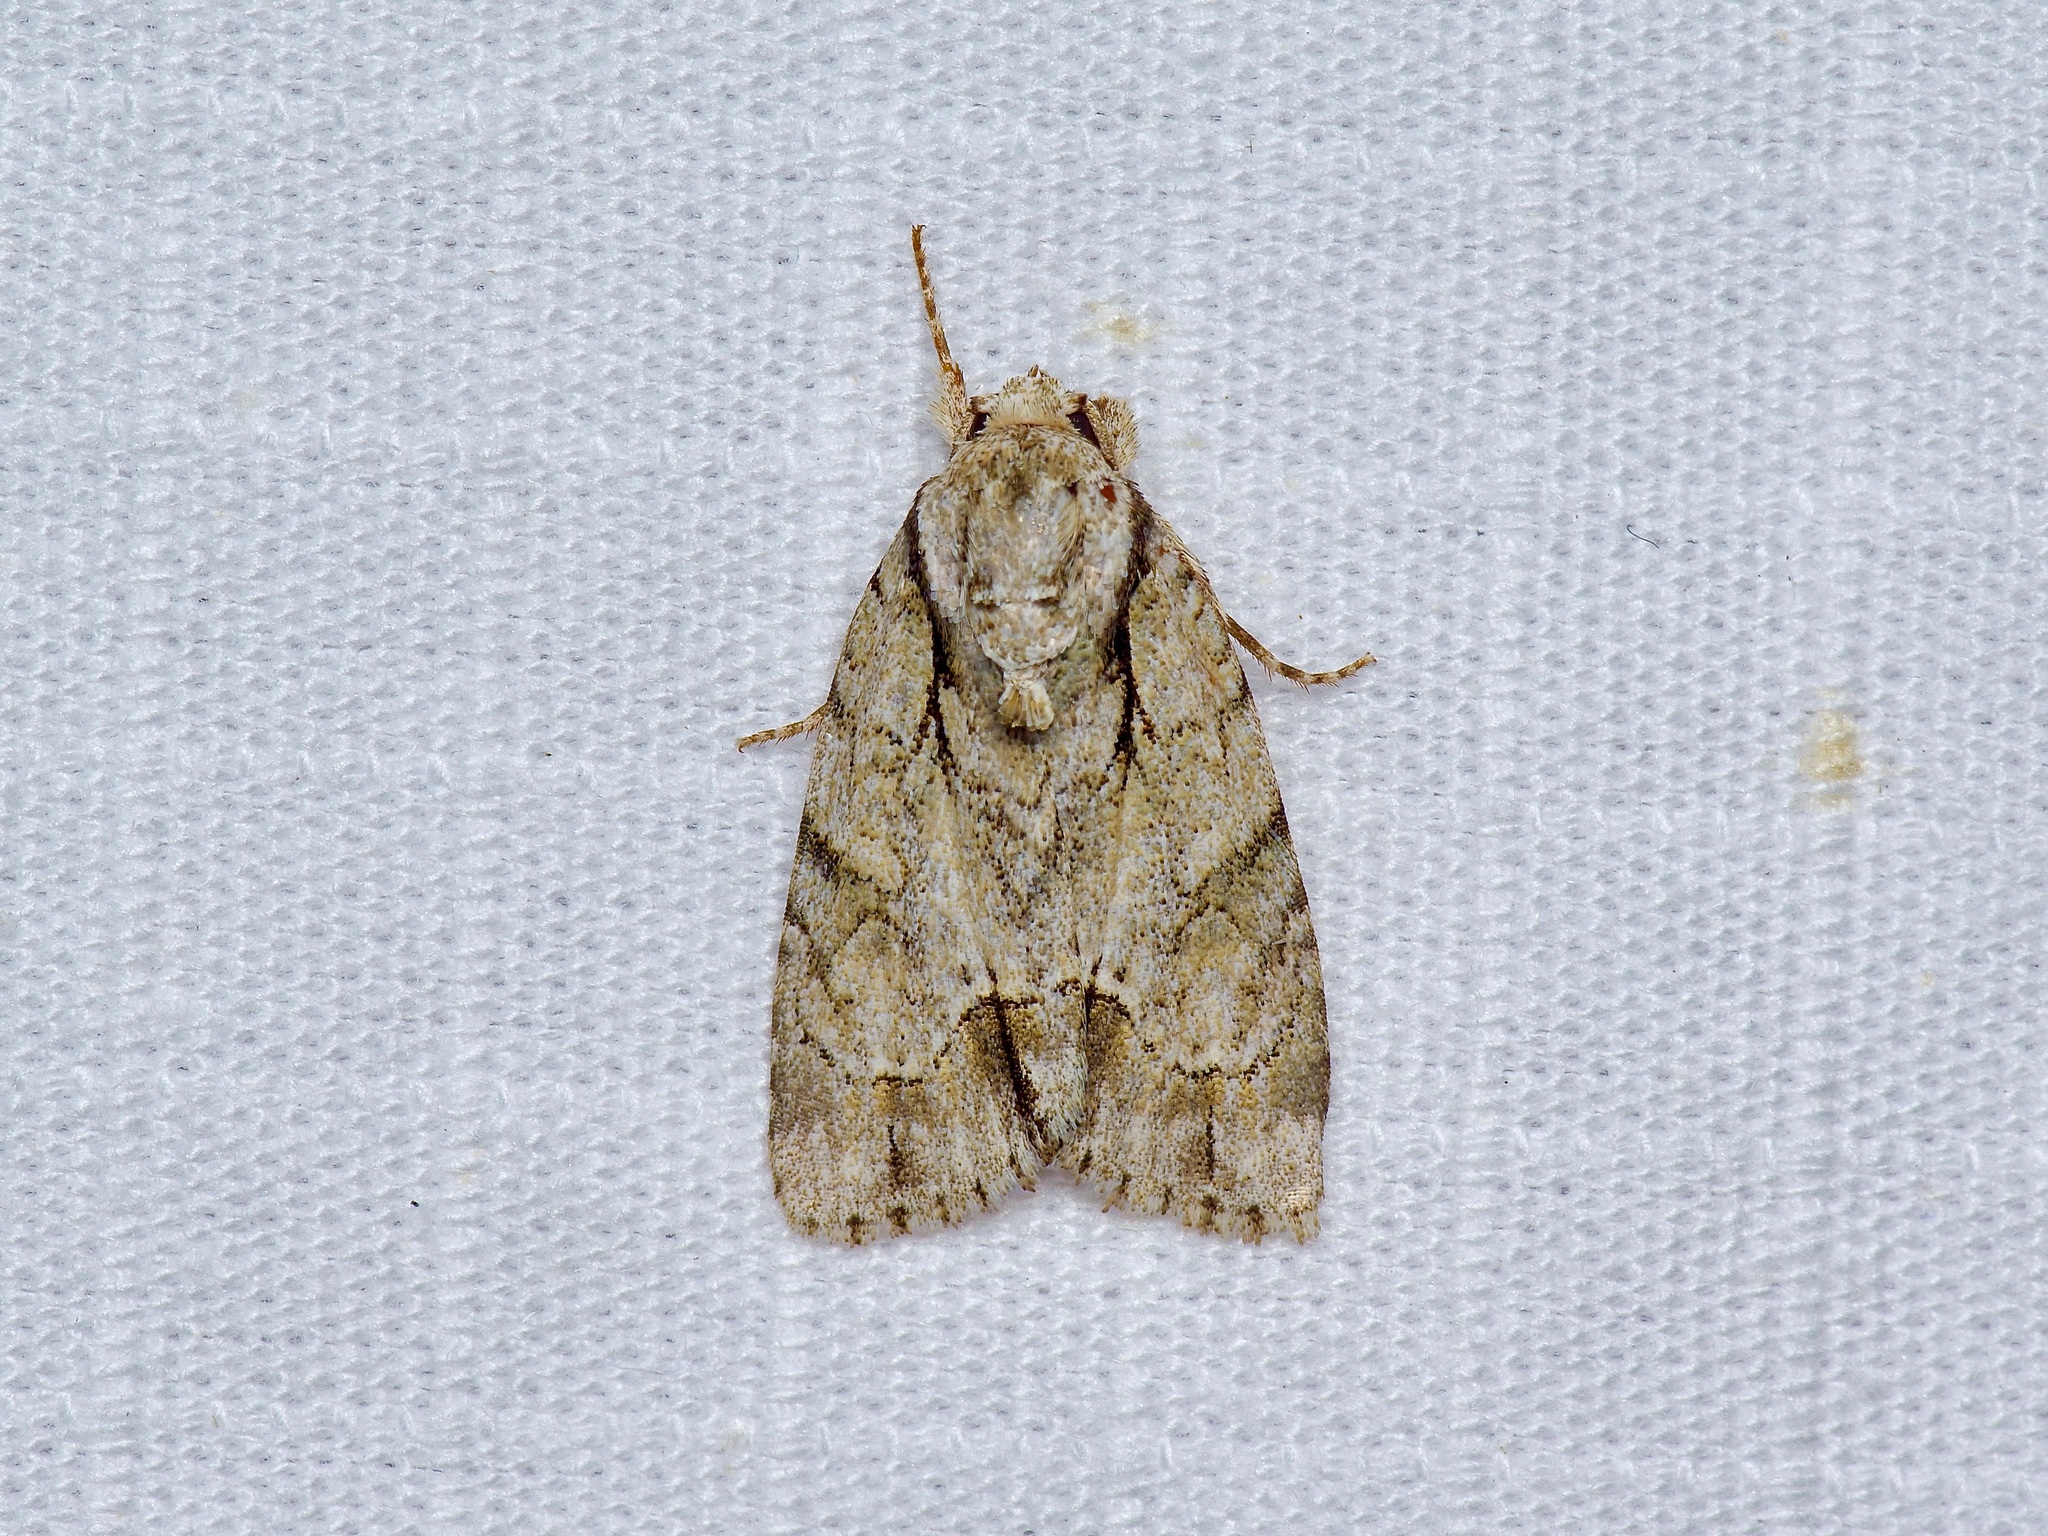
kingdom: Animalia
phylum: Arthropoda
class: Insecta
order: Lepidoptera
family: Noctuidae
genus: Acronicta
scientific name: Acronicta vinnula
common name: Delightful dagger
